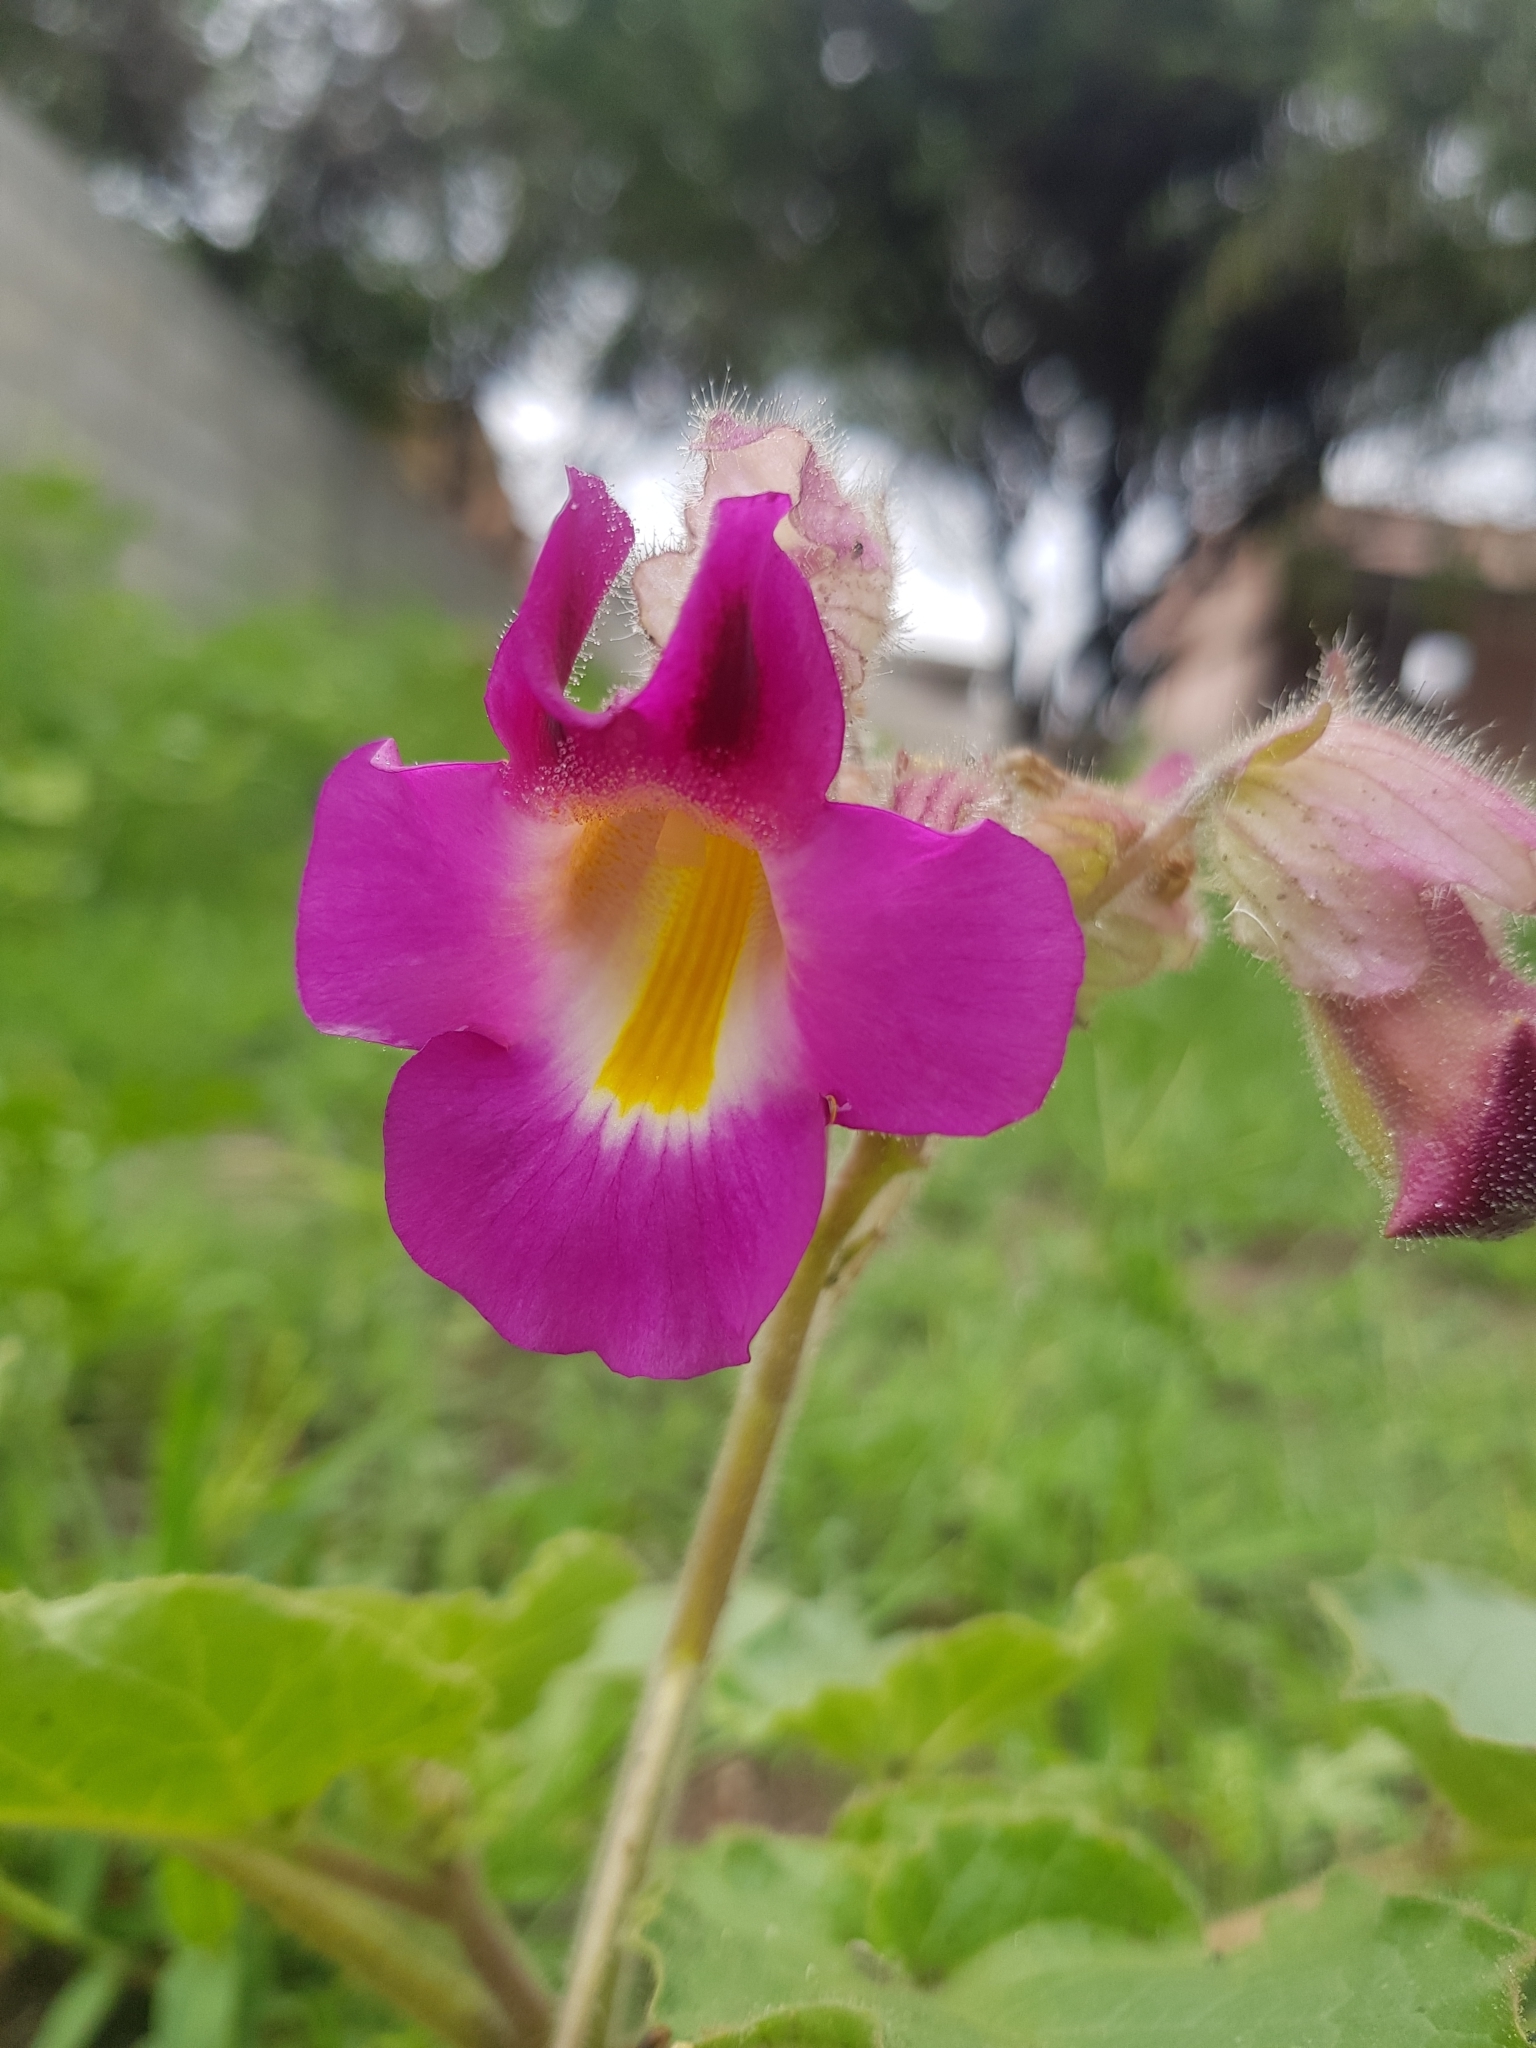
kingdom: Plantae
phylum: Tracheophyta
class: Magnoliopsida
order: Lamiales
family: Martyniaceae
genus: Proboscidea
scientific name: Proboscidea louisianica
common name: Elephant tusks
